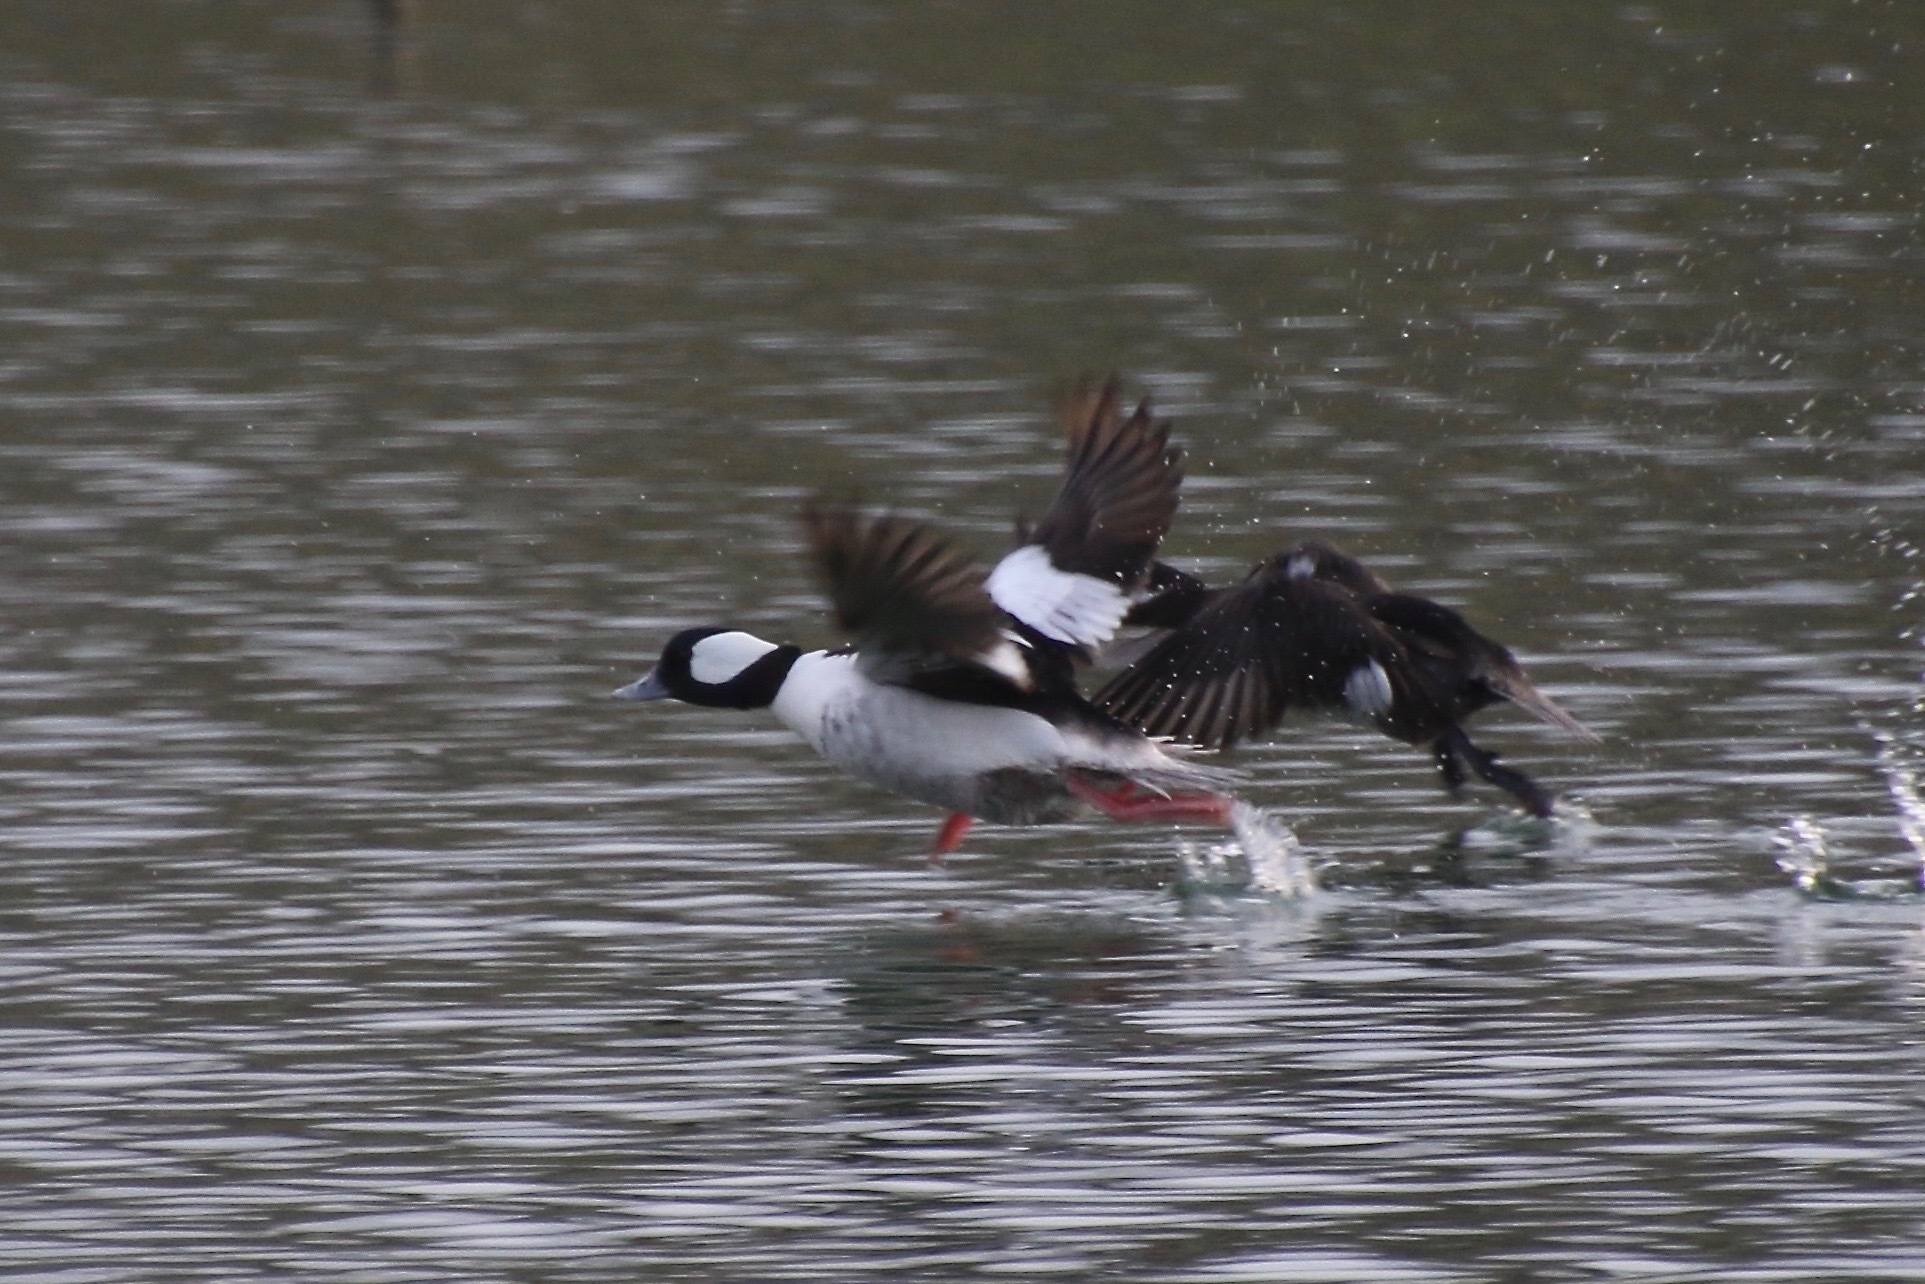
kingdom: Animalia
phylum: Chordata
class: Aves
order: Anseriformes
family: Anatidae
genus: Bucephala
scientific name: Bucephala albeola
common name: Bufflehead
